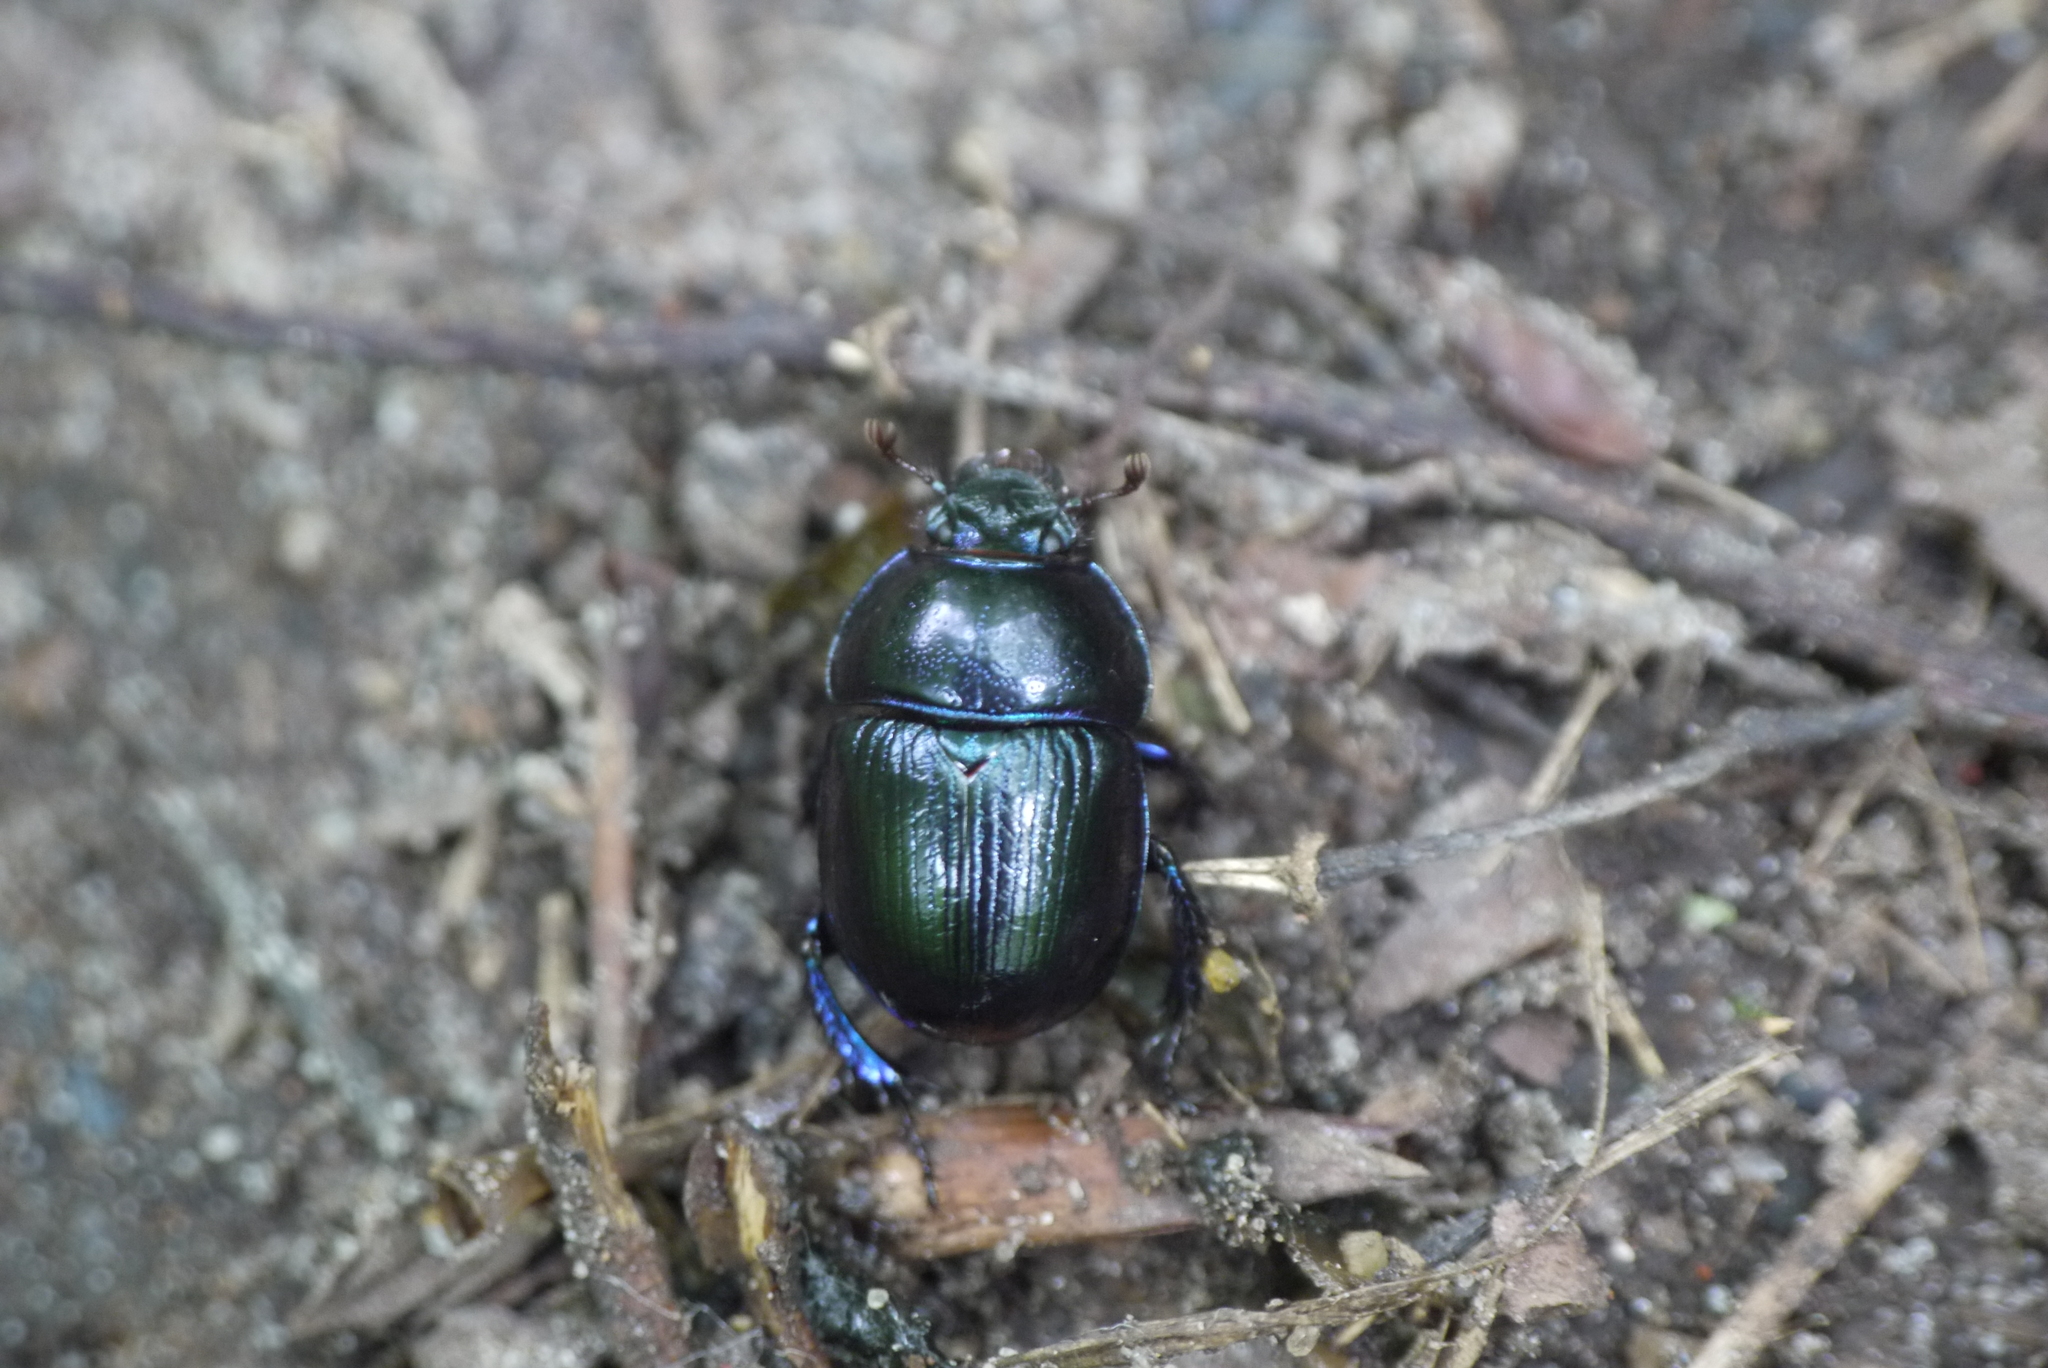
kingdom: Animalia
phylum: Arthropoda
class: Insecta
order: Coleoptera
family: Geotrupidae
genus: Anoplotrupes
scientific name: Anoplotrupes stercorosus
